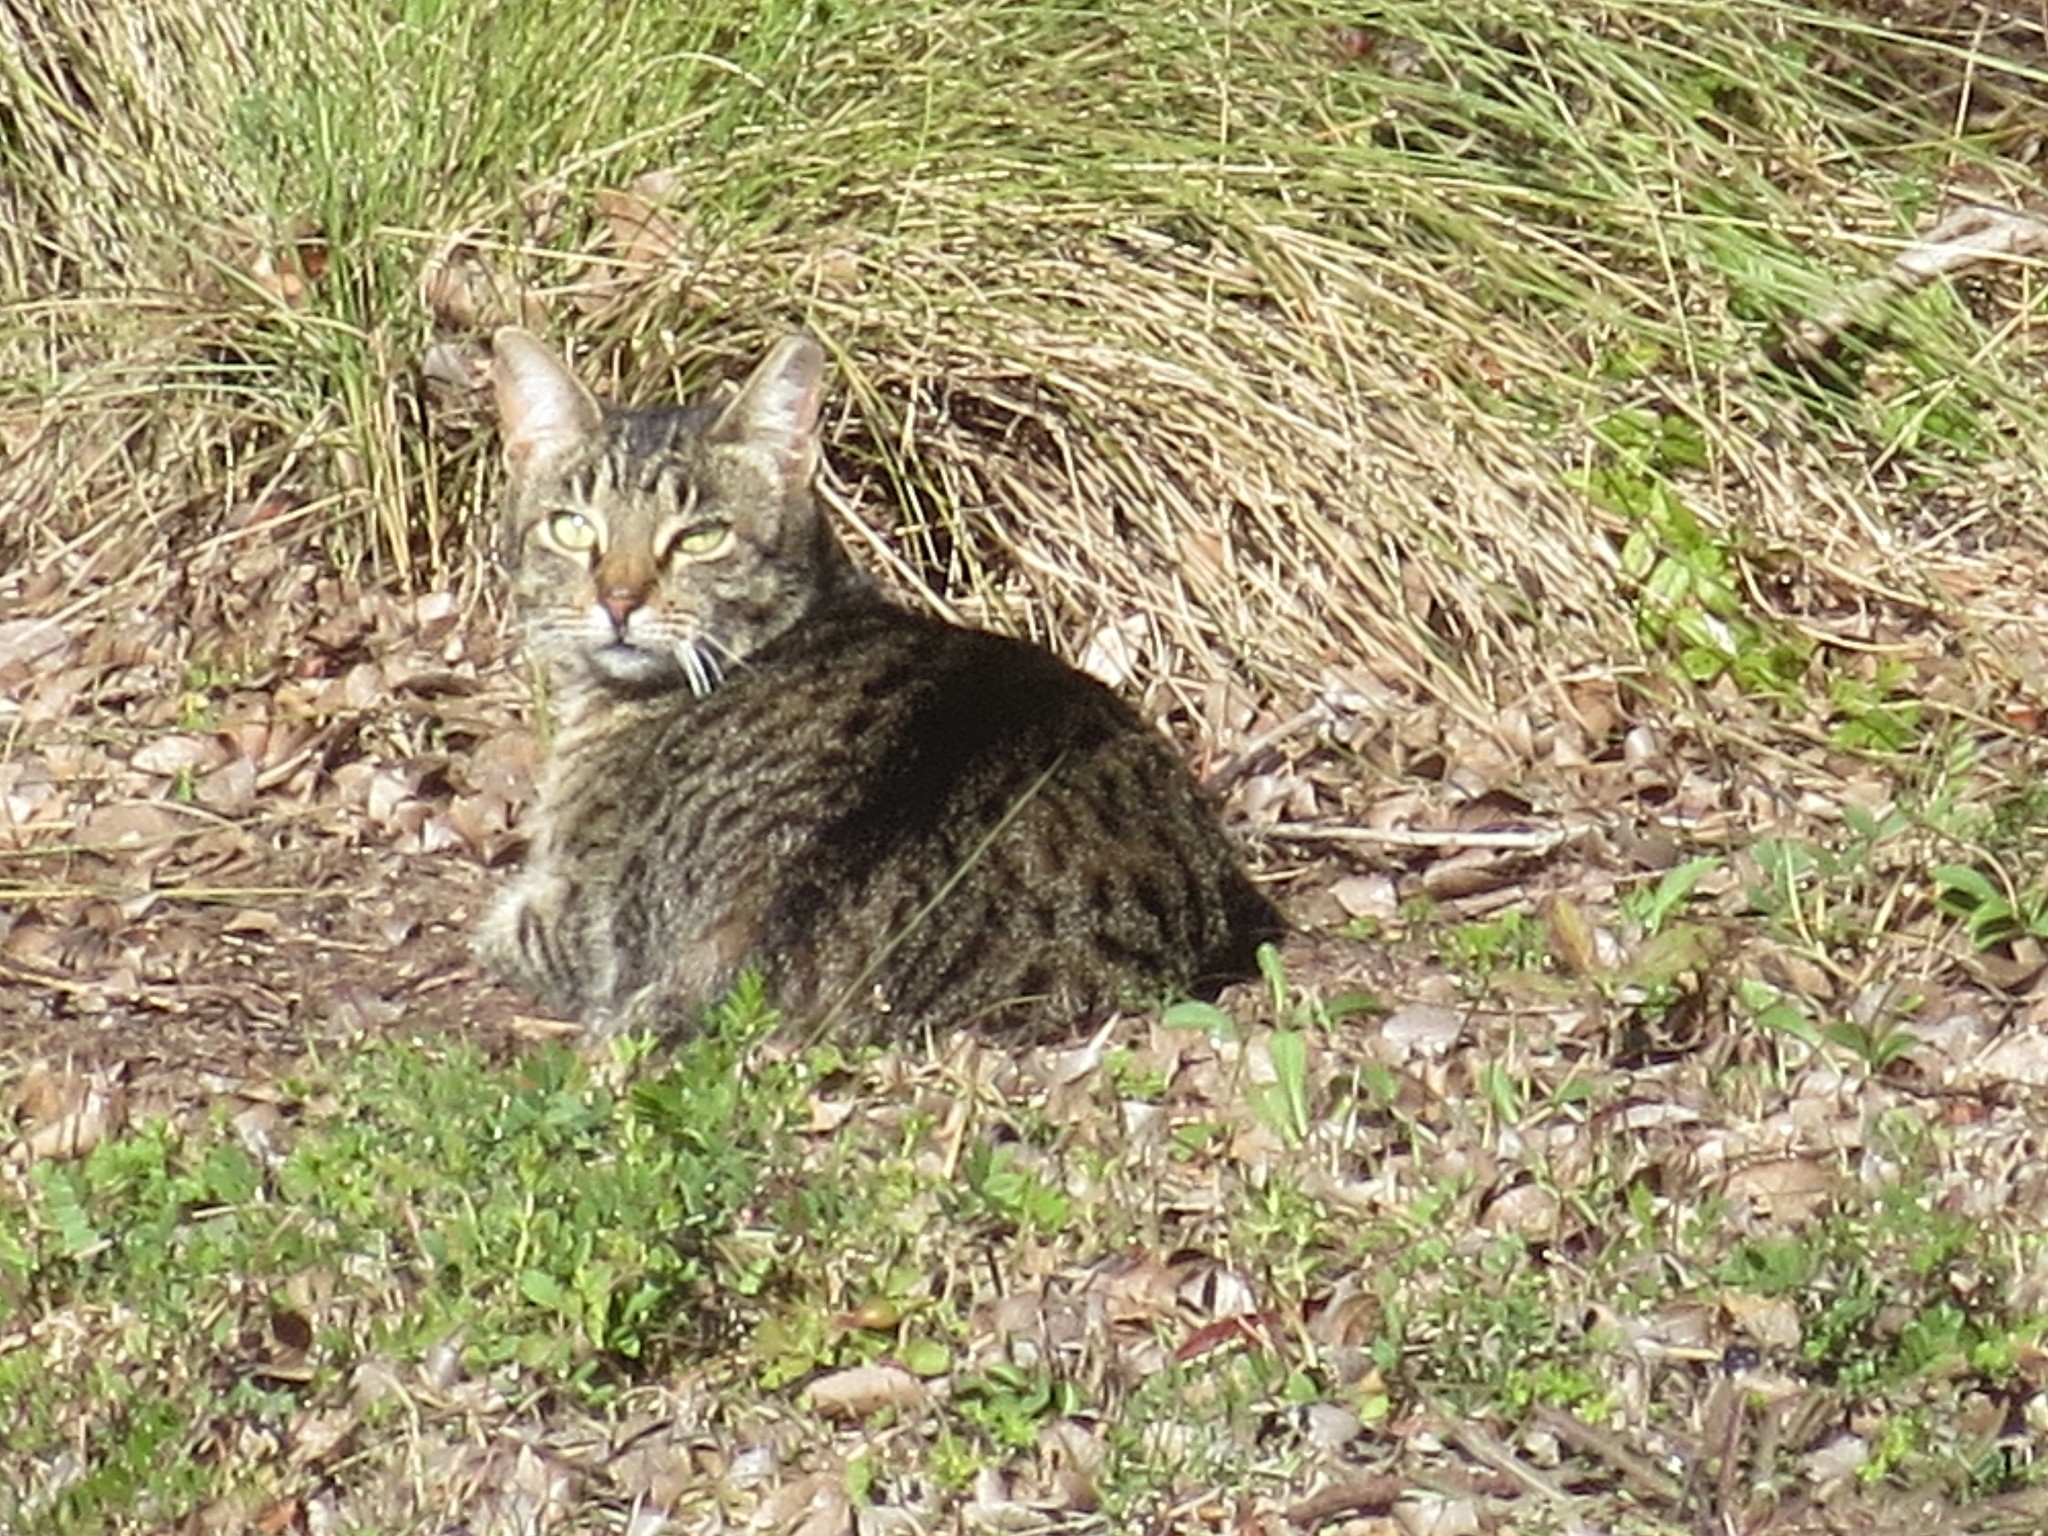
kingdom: Animalia
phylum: Chordata
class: Mammalia
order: Carnivora
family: Felidae
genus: Felis
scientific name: Felis catus
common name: Domestic cat
